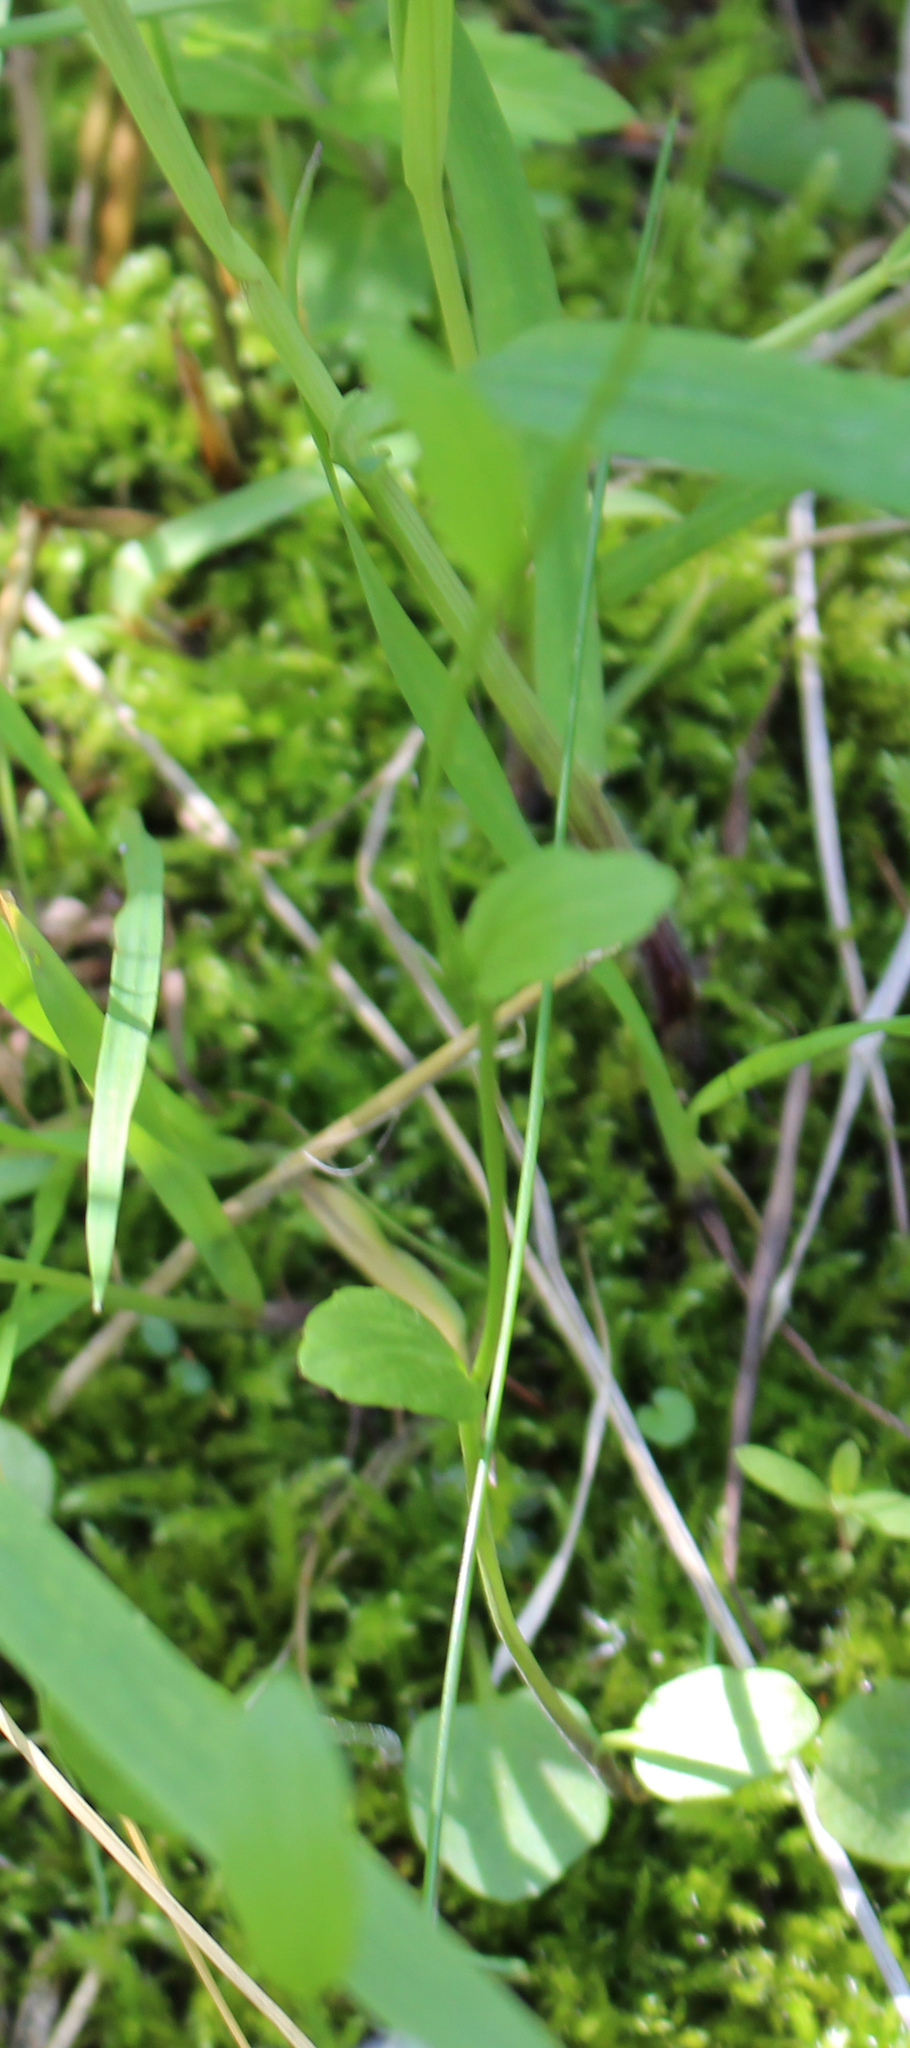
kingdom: Plantae
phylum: Tracheophyta
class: Magnoliopsida
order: Brassicales
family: Brassicaceae
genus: Cardamine
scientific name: Cardamine bulbosa
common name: Spring cress
